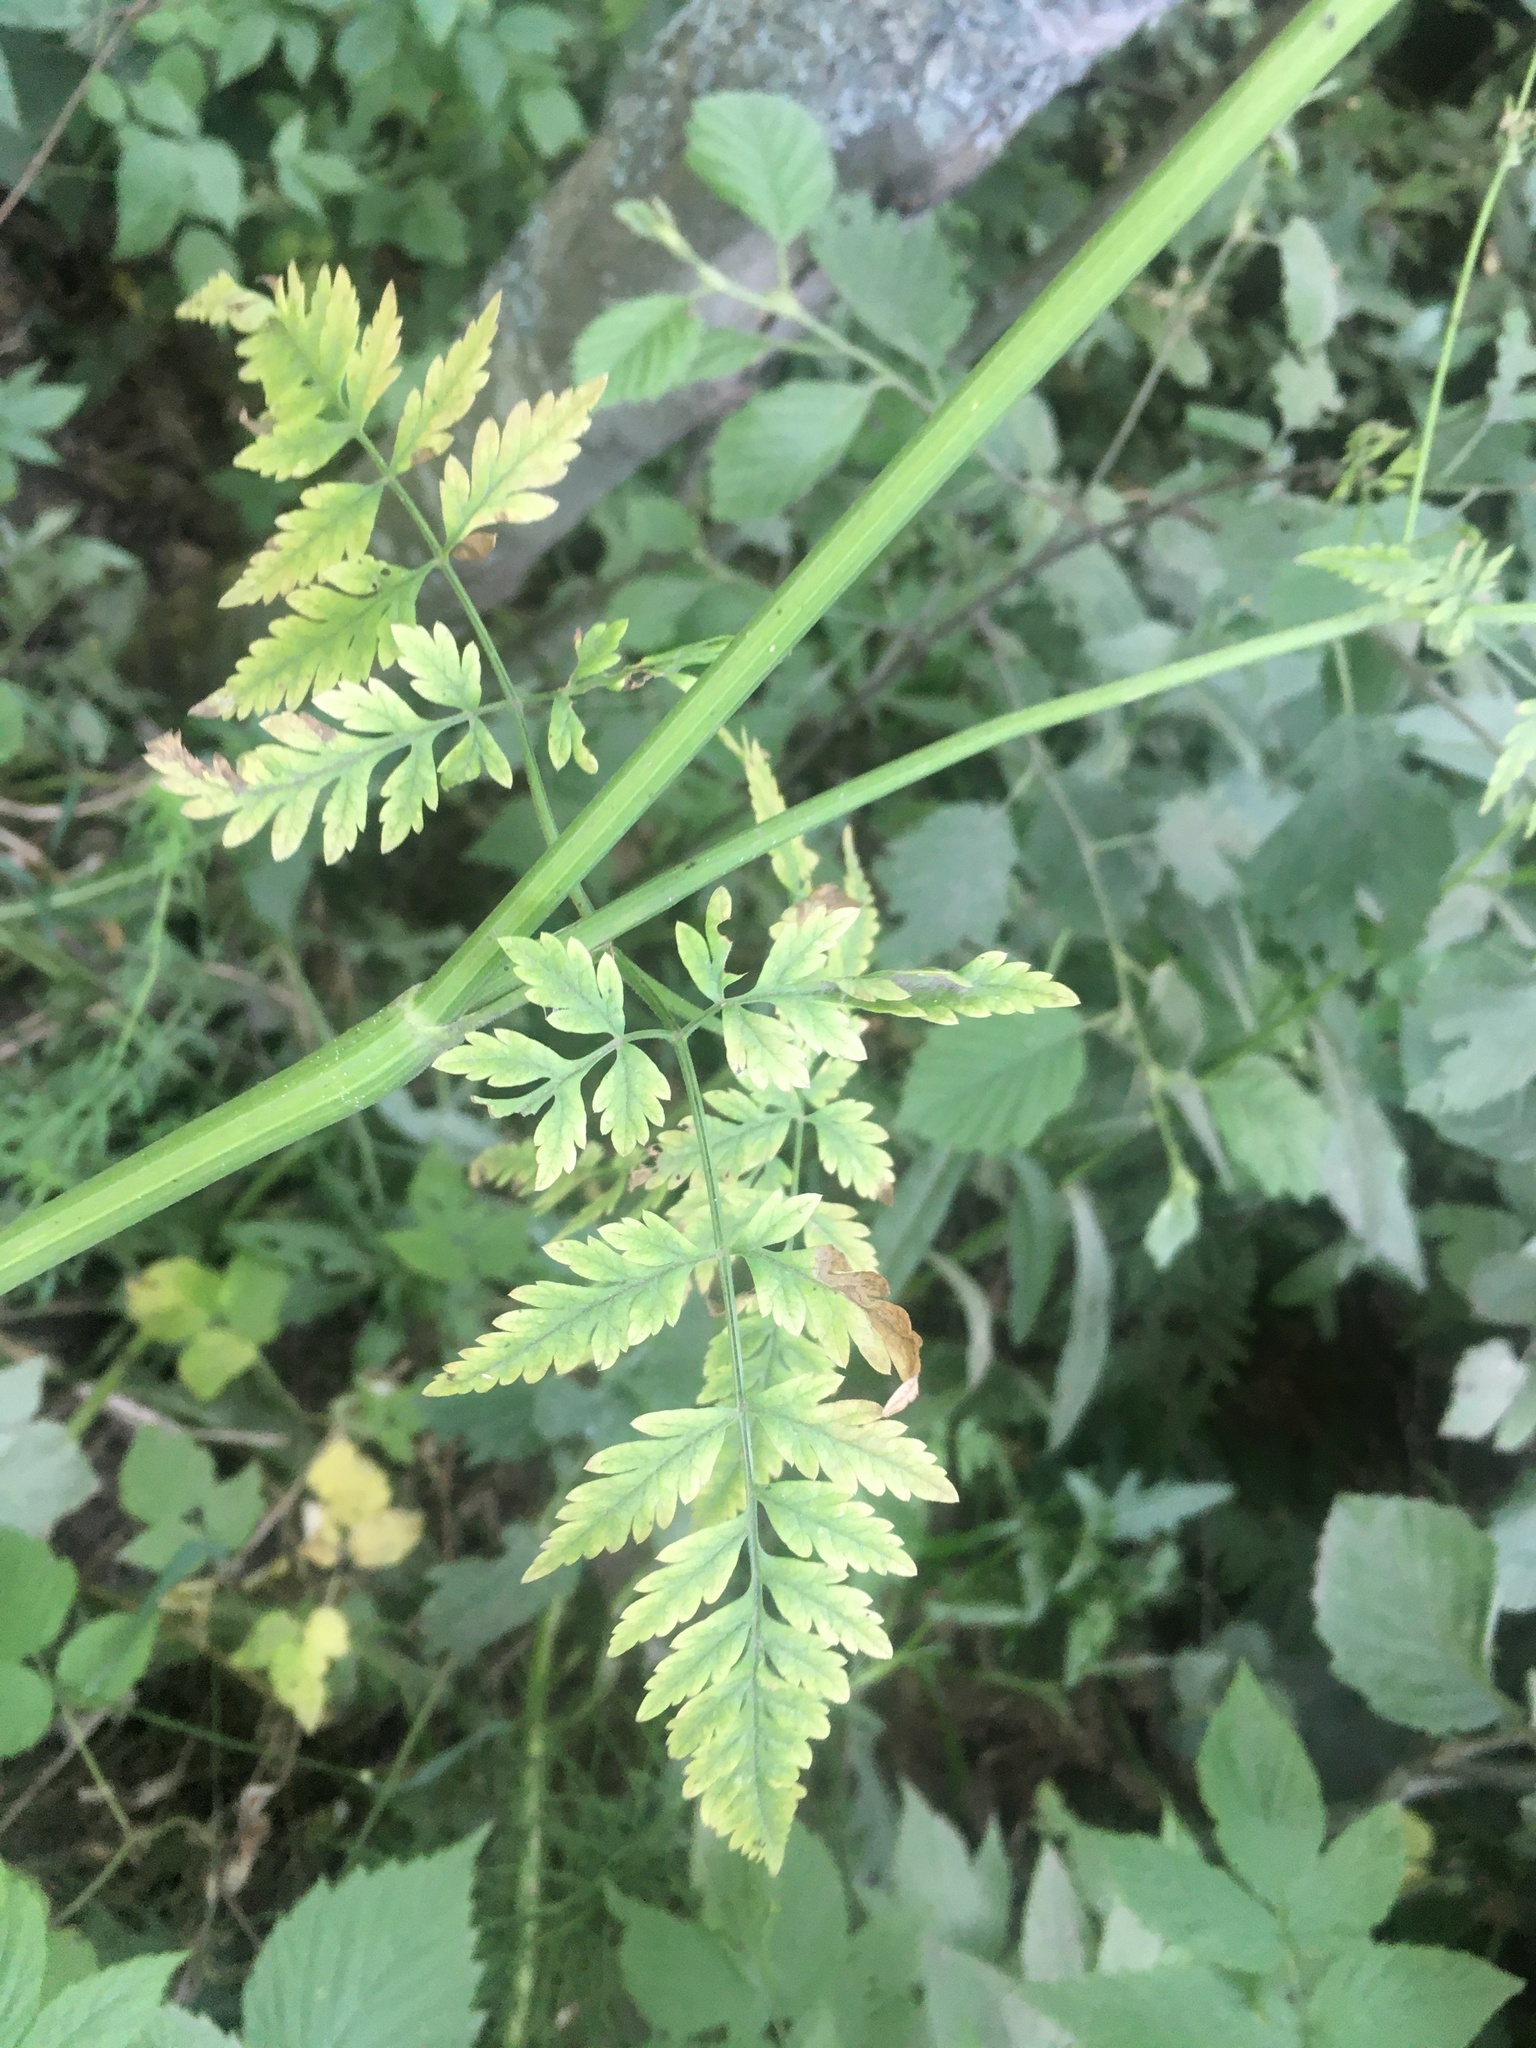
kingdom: Plantae
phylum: Tracheophyta
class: Magnoliopsida
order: Apiales
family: Apiaceae
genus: Anthriscus
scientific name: Anthriscus sylvestris
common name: Cow parsley
